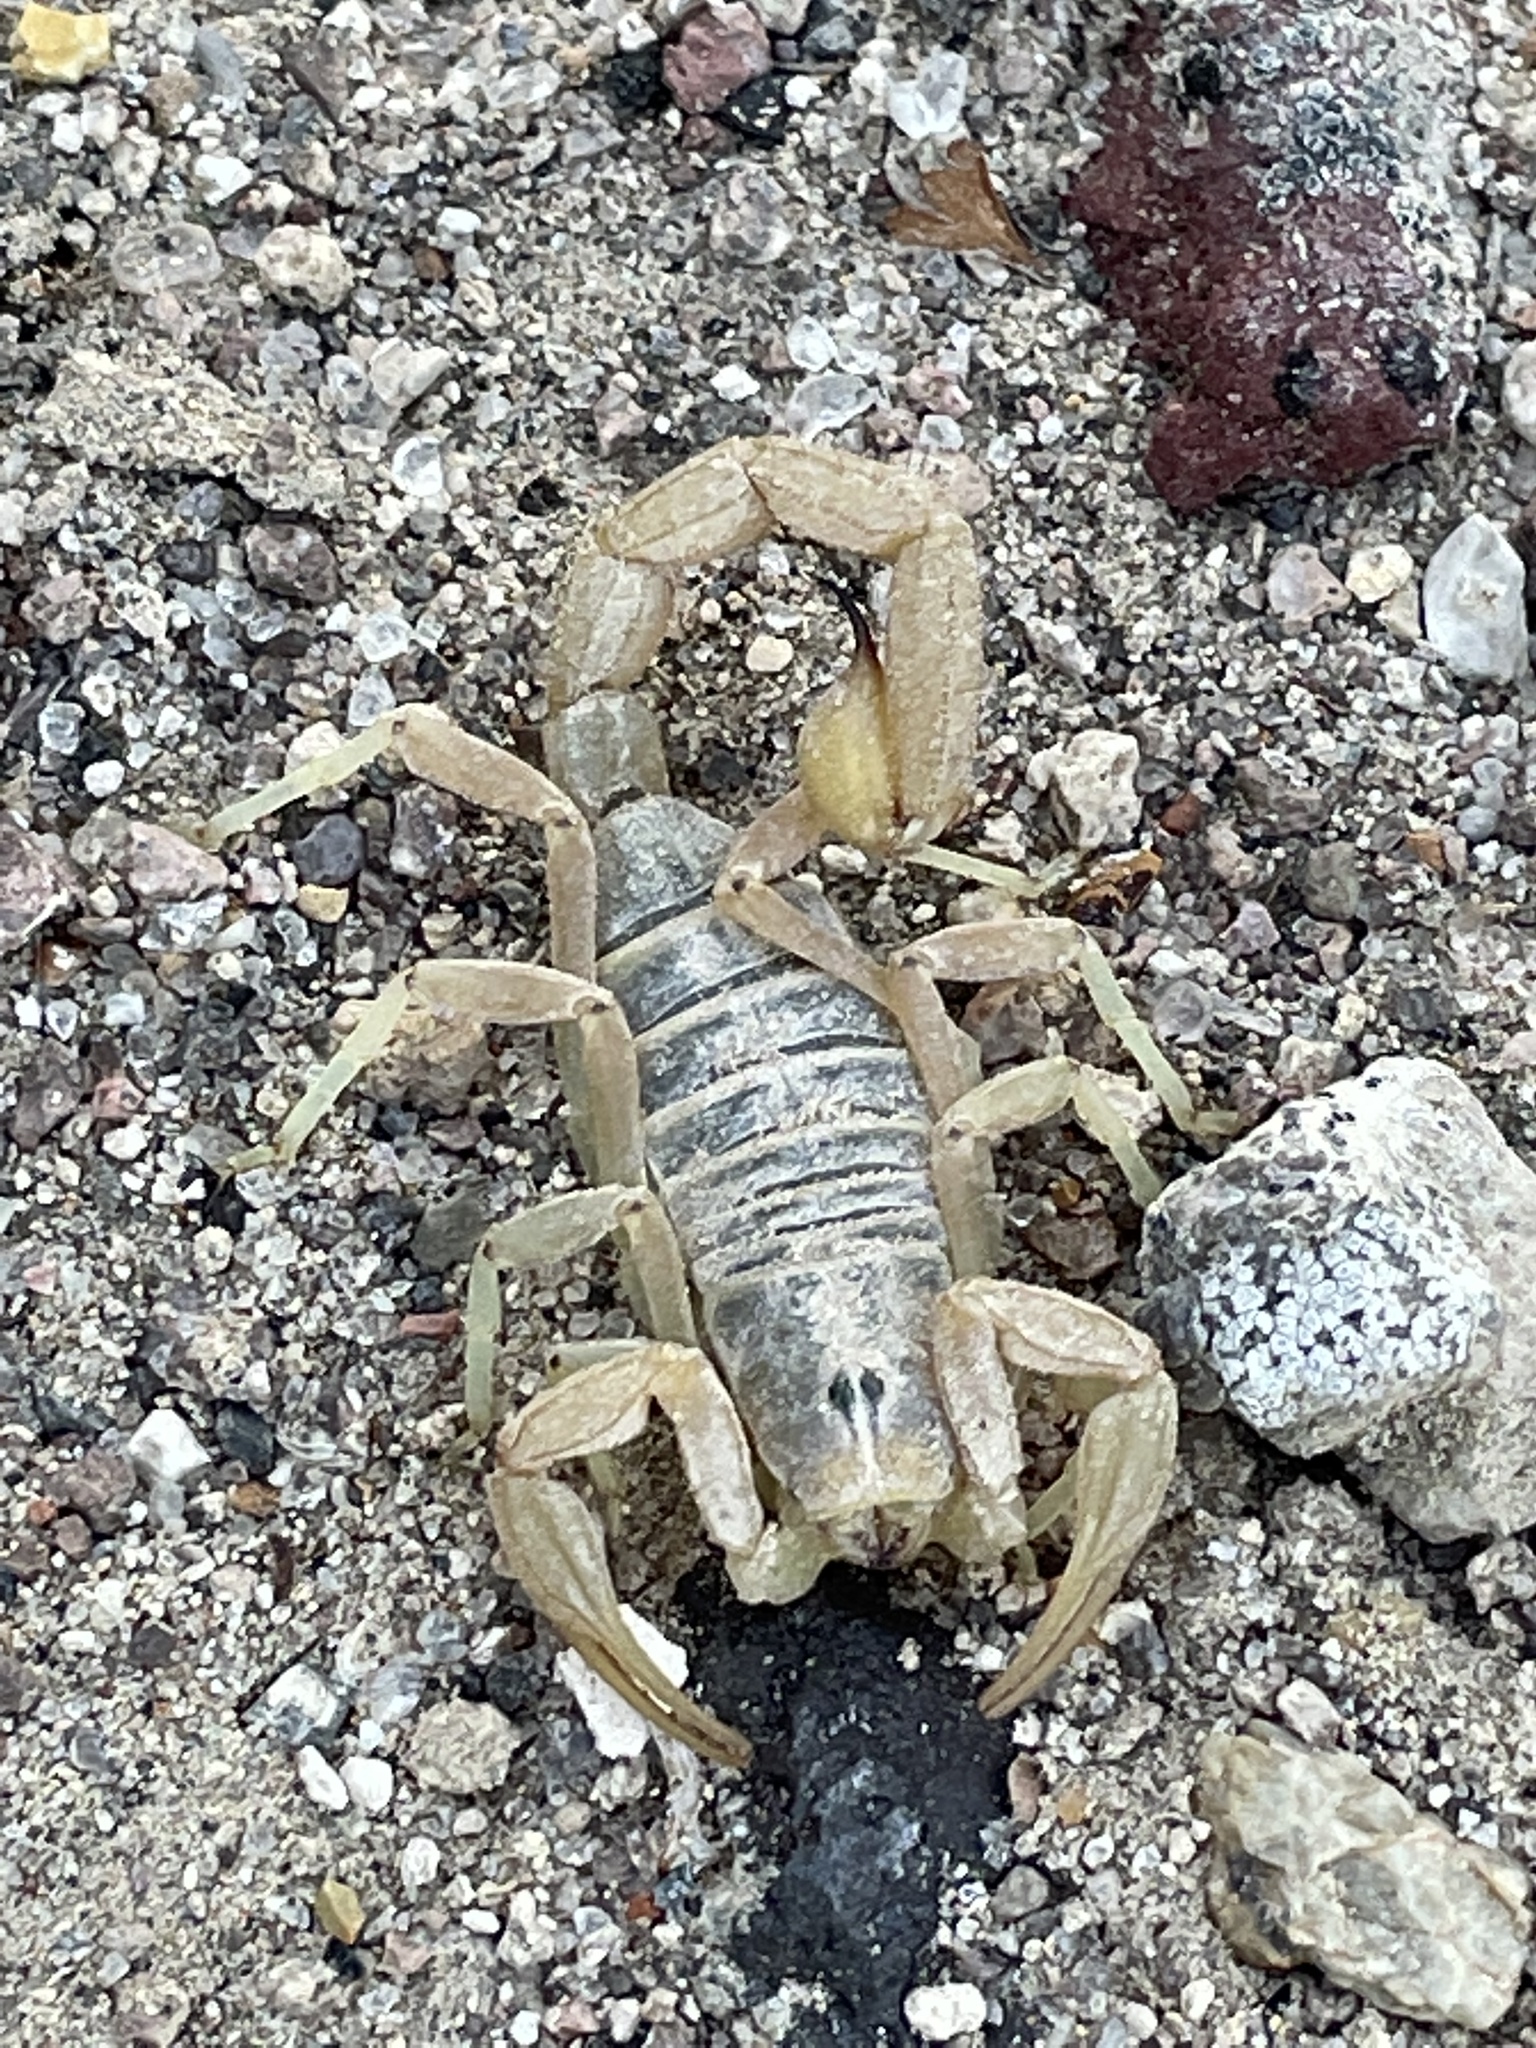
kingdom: Animalia
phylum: Arthropoda
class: Arachnida
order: Scorpiones
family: Vaejovidae
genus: Paruroctonus
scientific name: Paruroctonus becki
